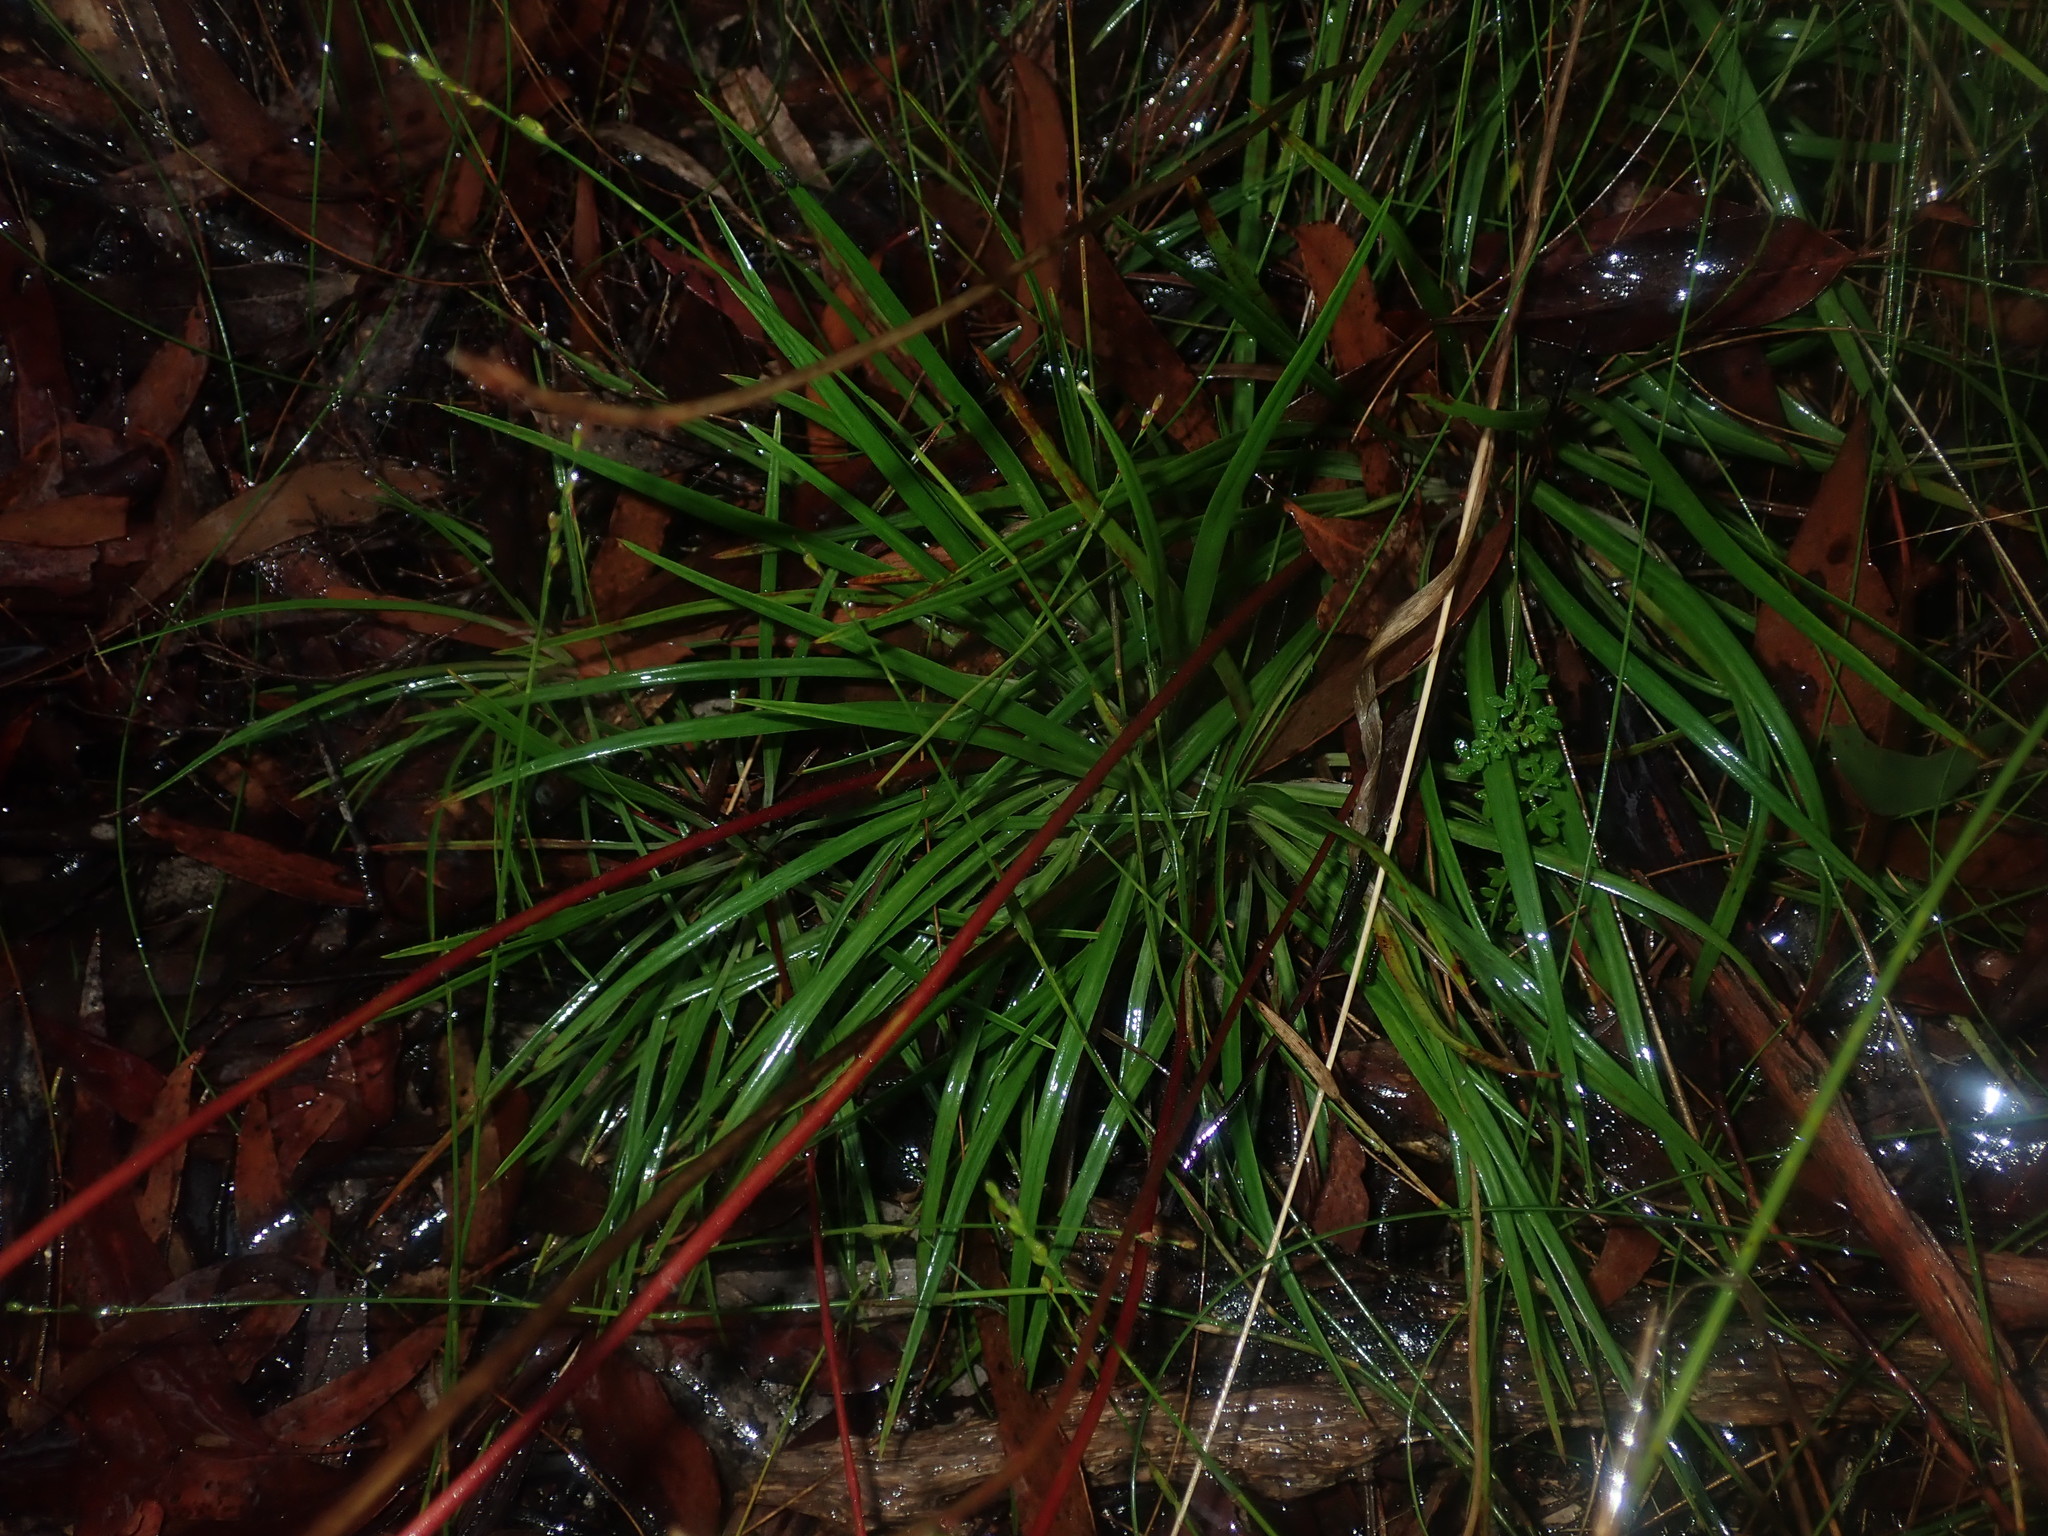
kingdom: Plantae
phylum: Tracheophyta
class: Magnoliopsida
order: Asterales
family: Stylidiaceae
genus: Stylidium
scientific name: Stylidium graminifolium
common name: Grass triggerplant
